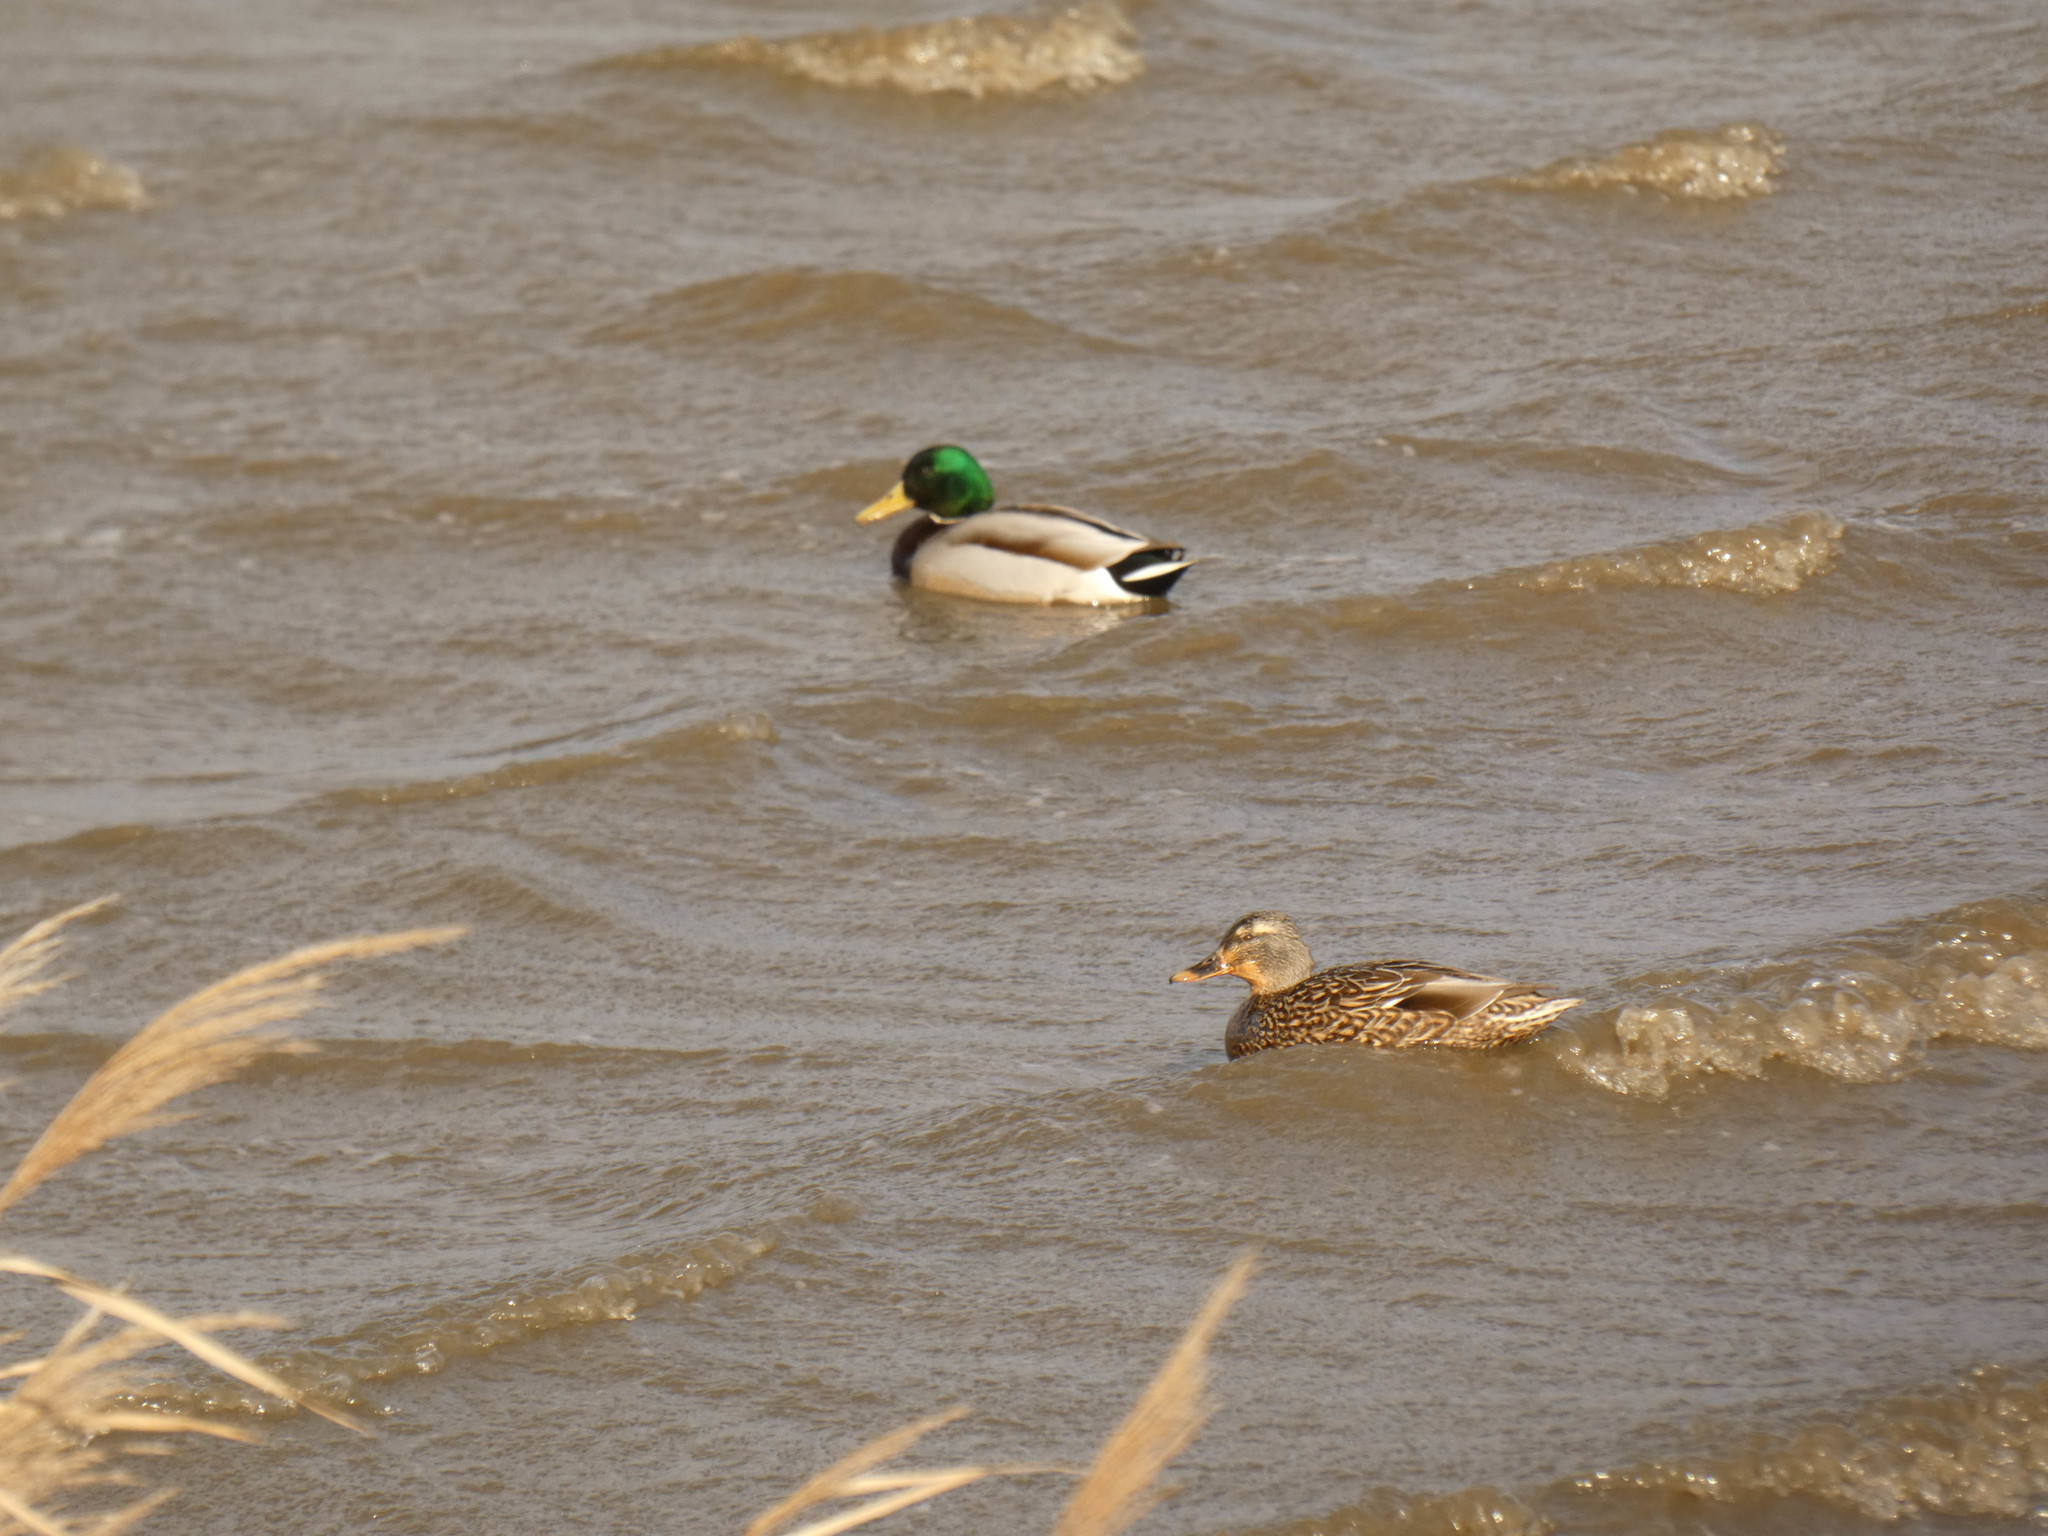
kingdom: Animalia
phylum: Chordata
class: Aves
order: Anseriformes
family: Anatidae
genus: Anas
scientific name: Anas platyrhynchos
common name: Mallard
